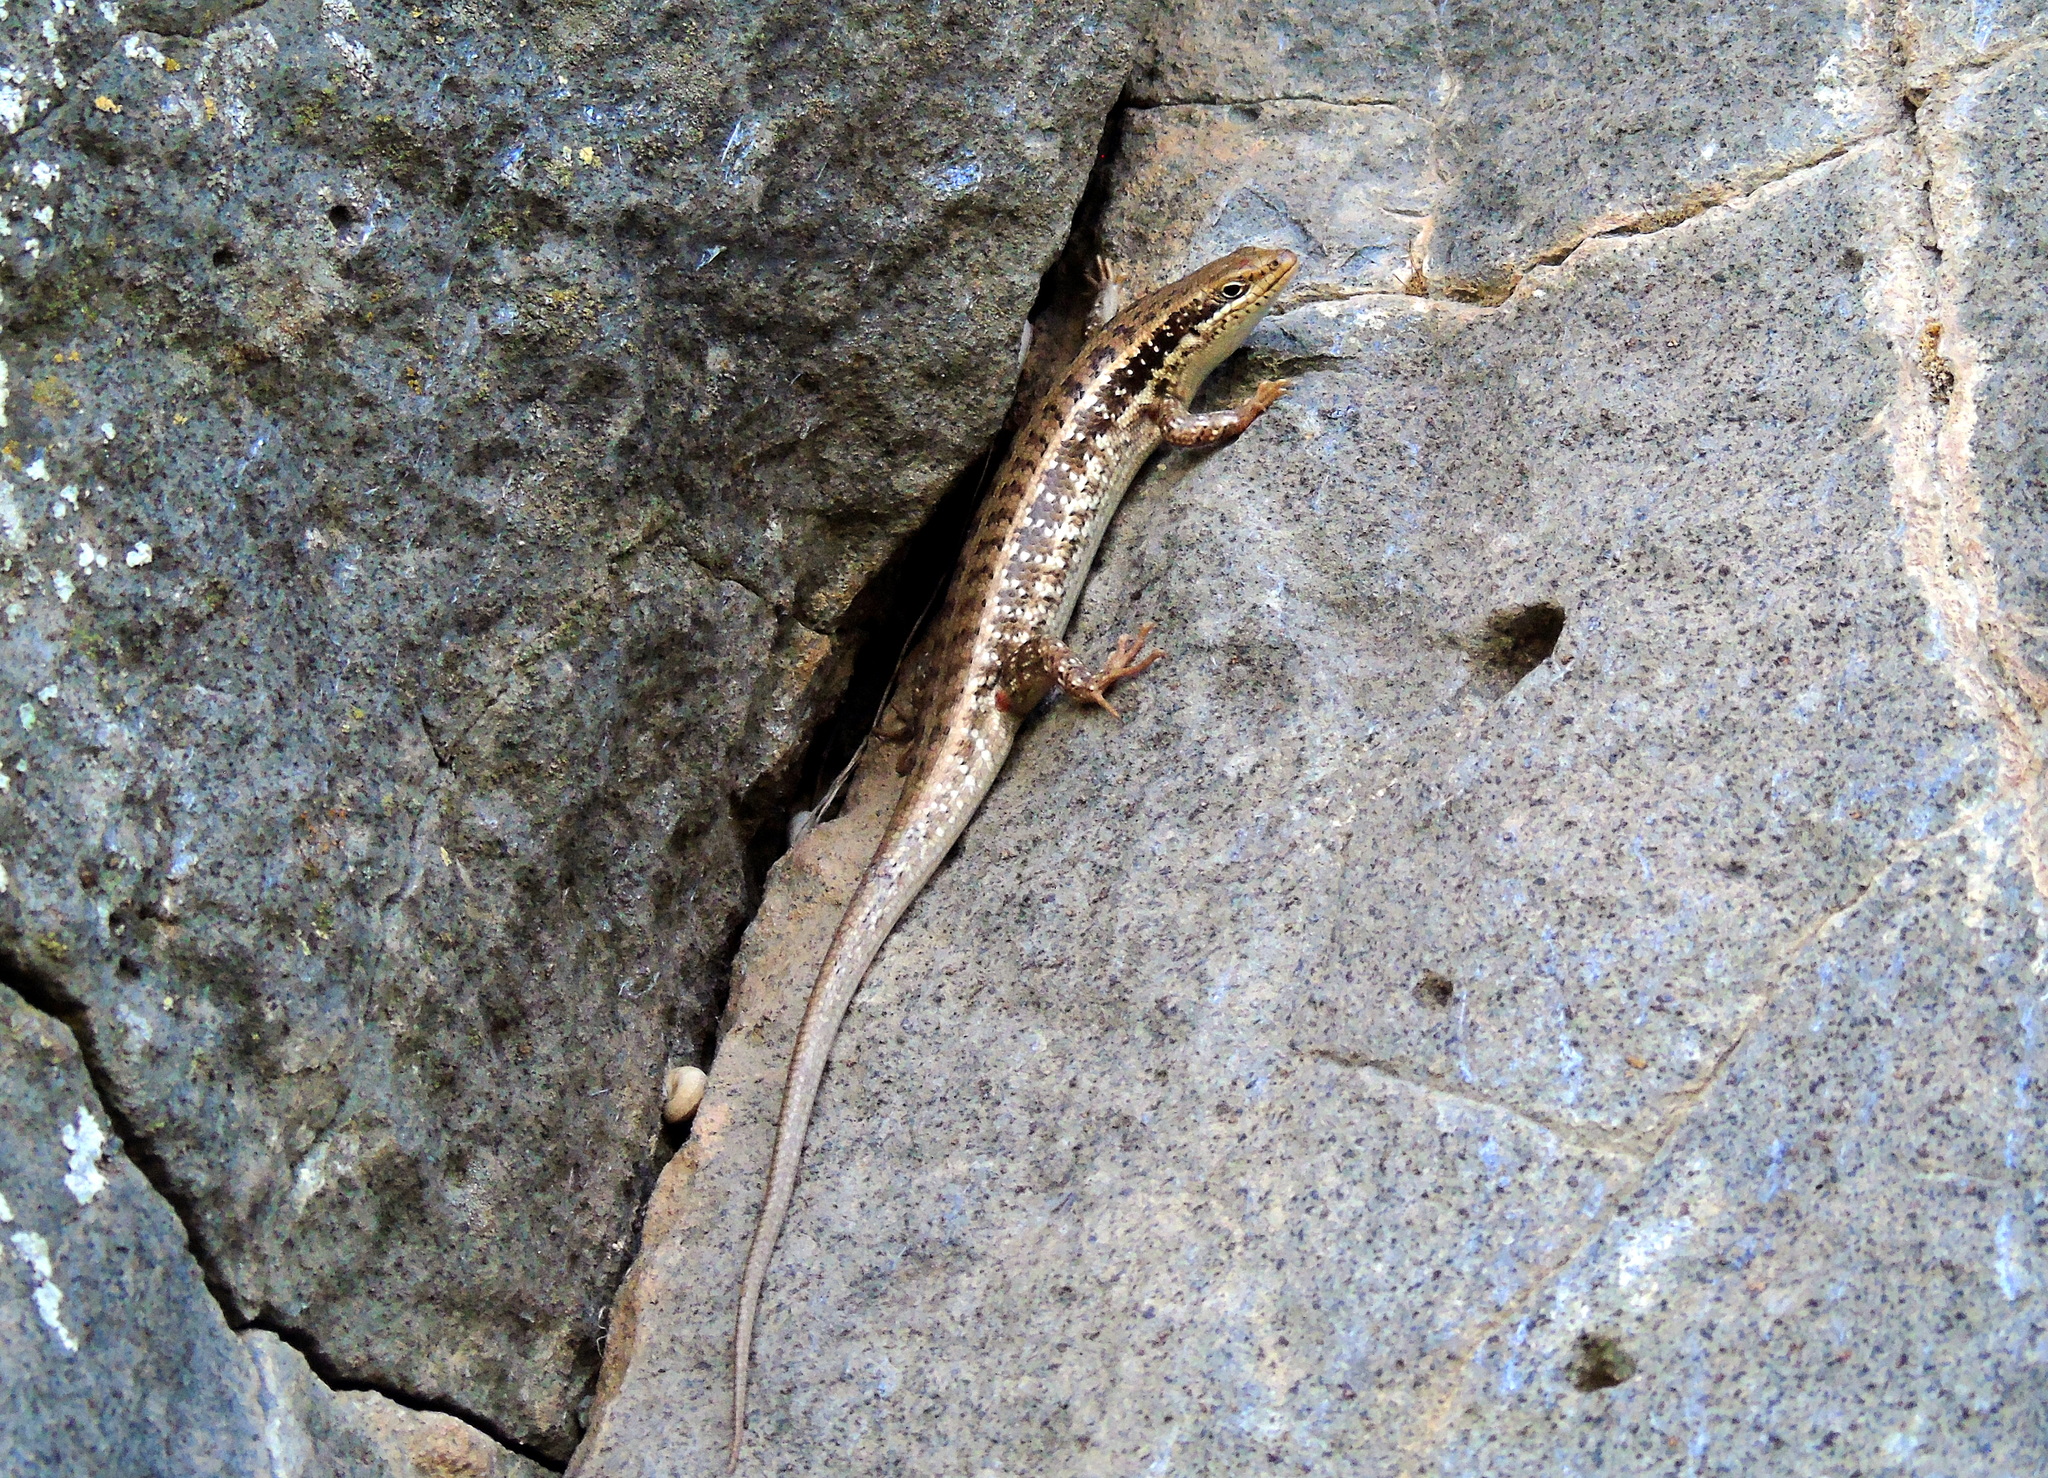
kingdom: Animalia
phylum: Chordata
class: Squamata
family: Scincidae
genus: Heremites
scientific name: Heremites auratus
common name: Golden grass mabuya
